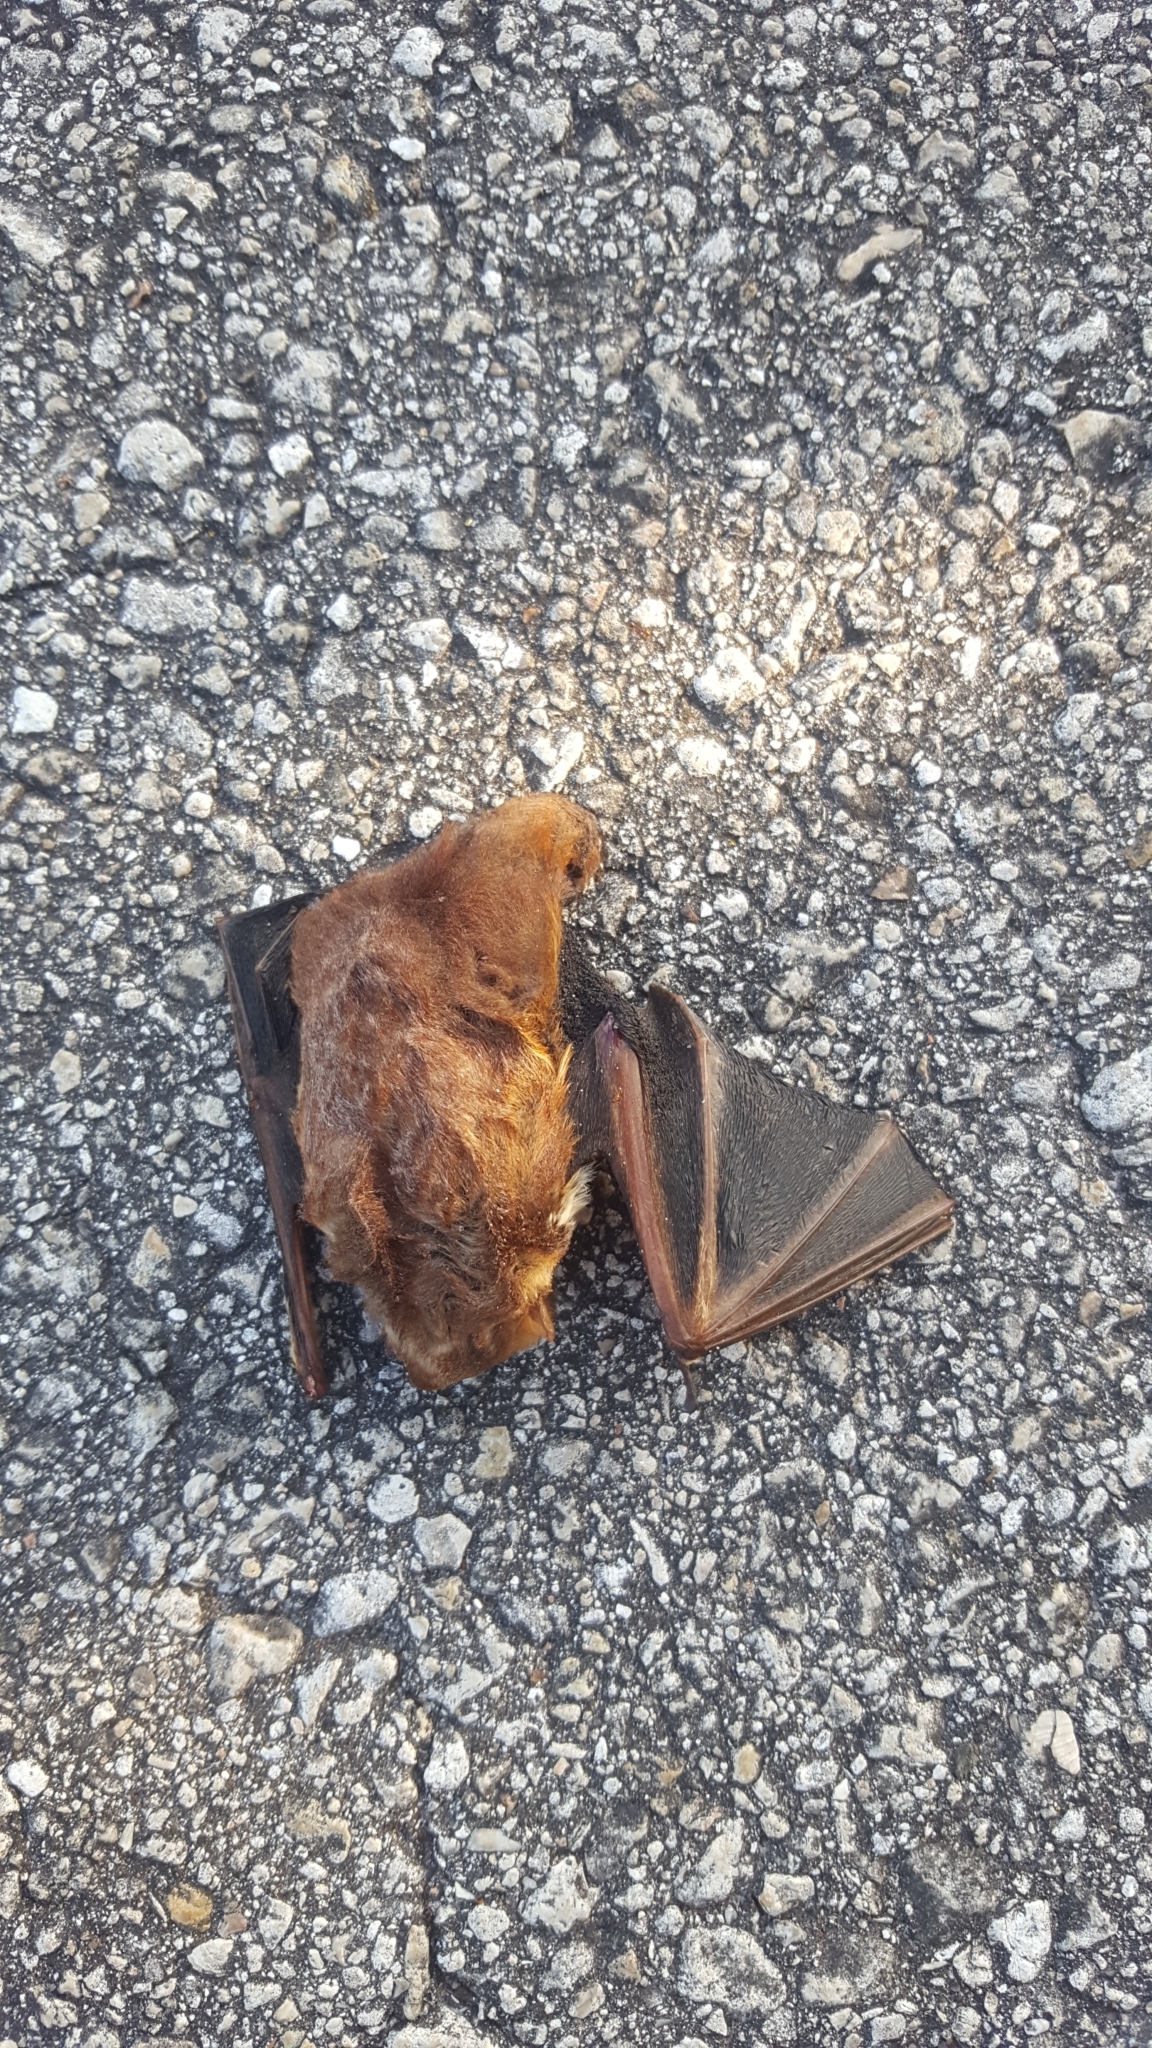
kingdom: Animalia
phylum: Chordata
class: Mammalia
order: Chiroptera
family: Vespertilionidae
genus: Lasiurus
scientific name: Lasiurus
